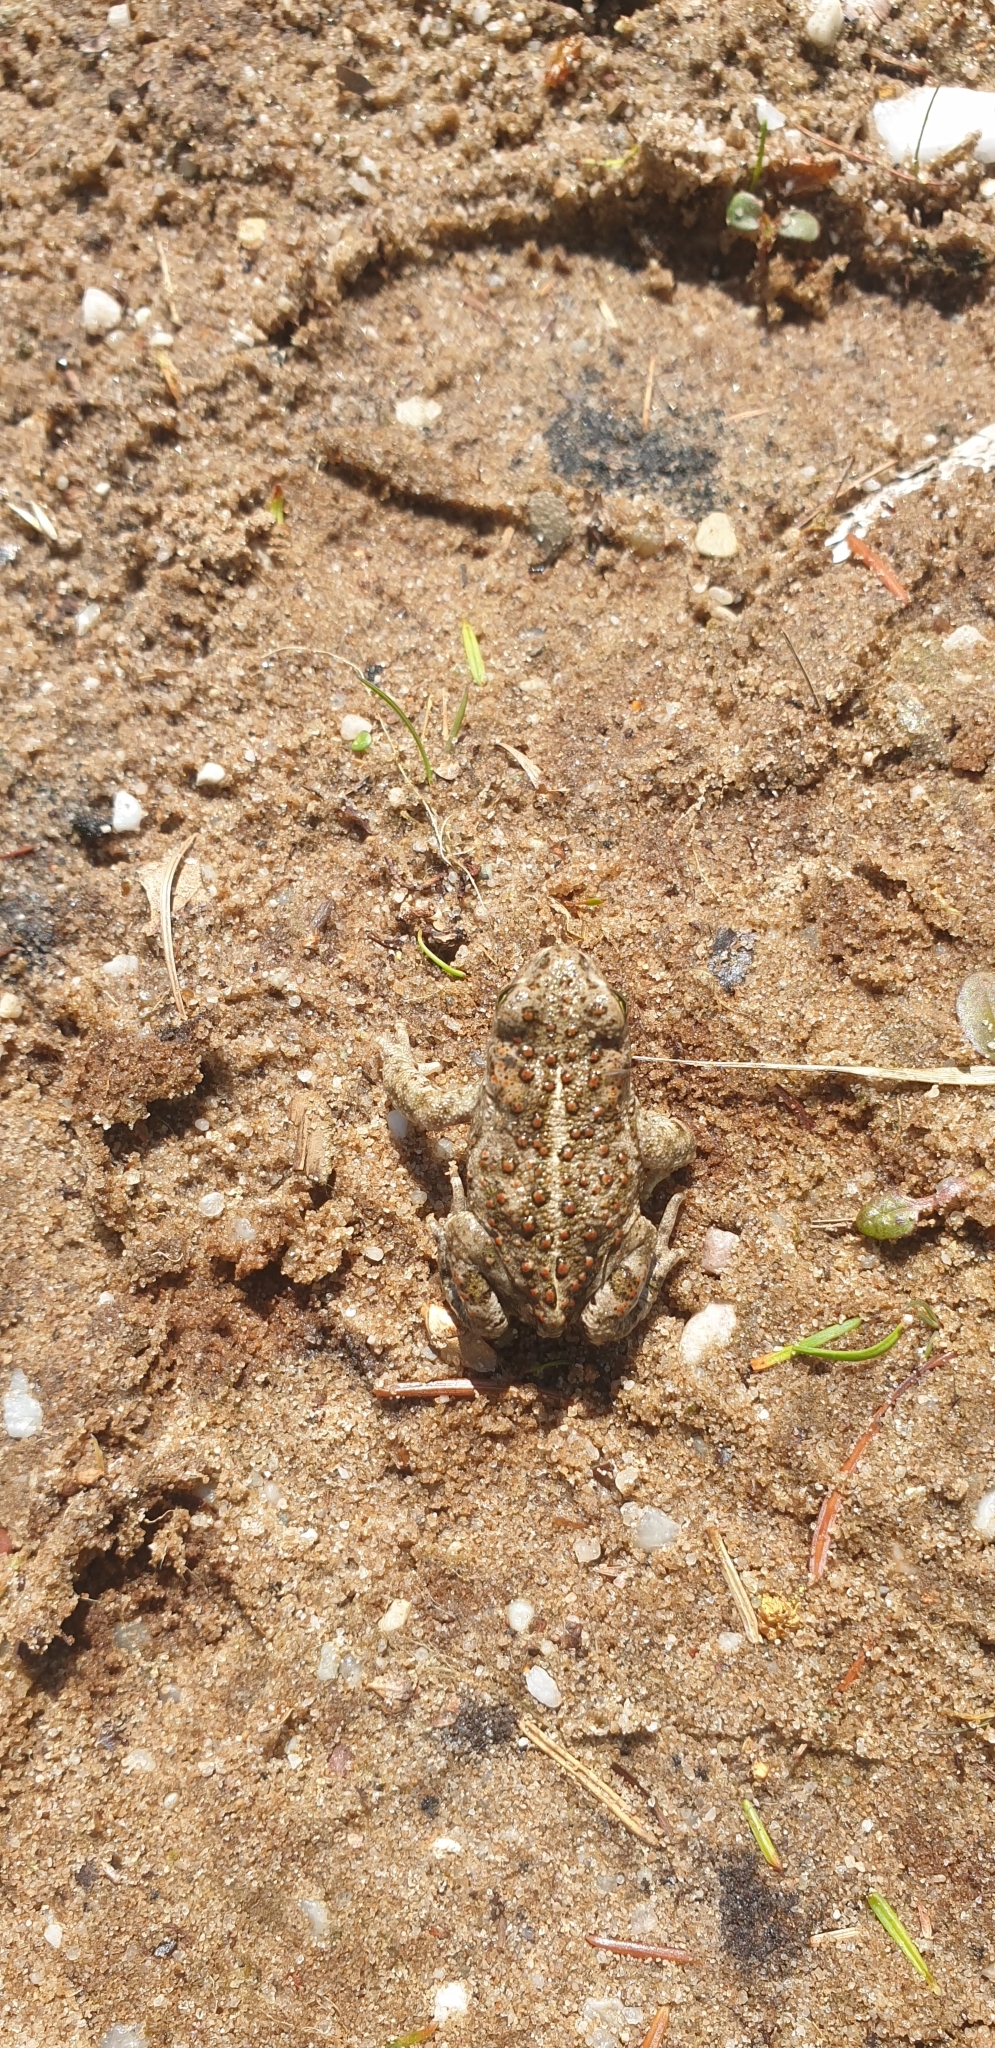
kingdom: Animalia
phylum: Chordata
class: Amphibia
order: Anura
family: Bufonidae
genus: Epidalea
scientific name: Epidalea calamita
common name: Natterjack toad
